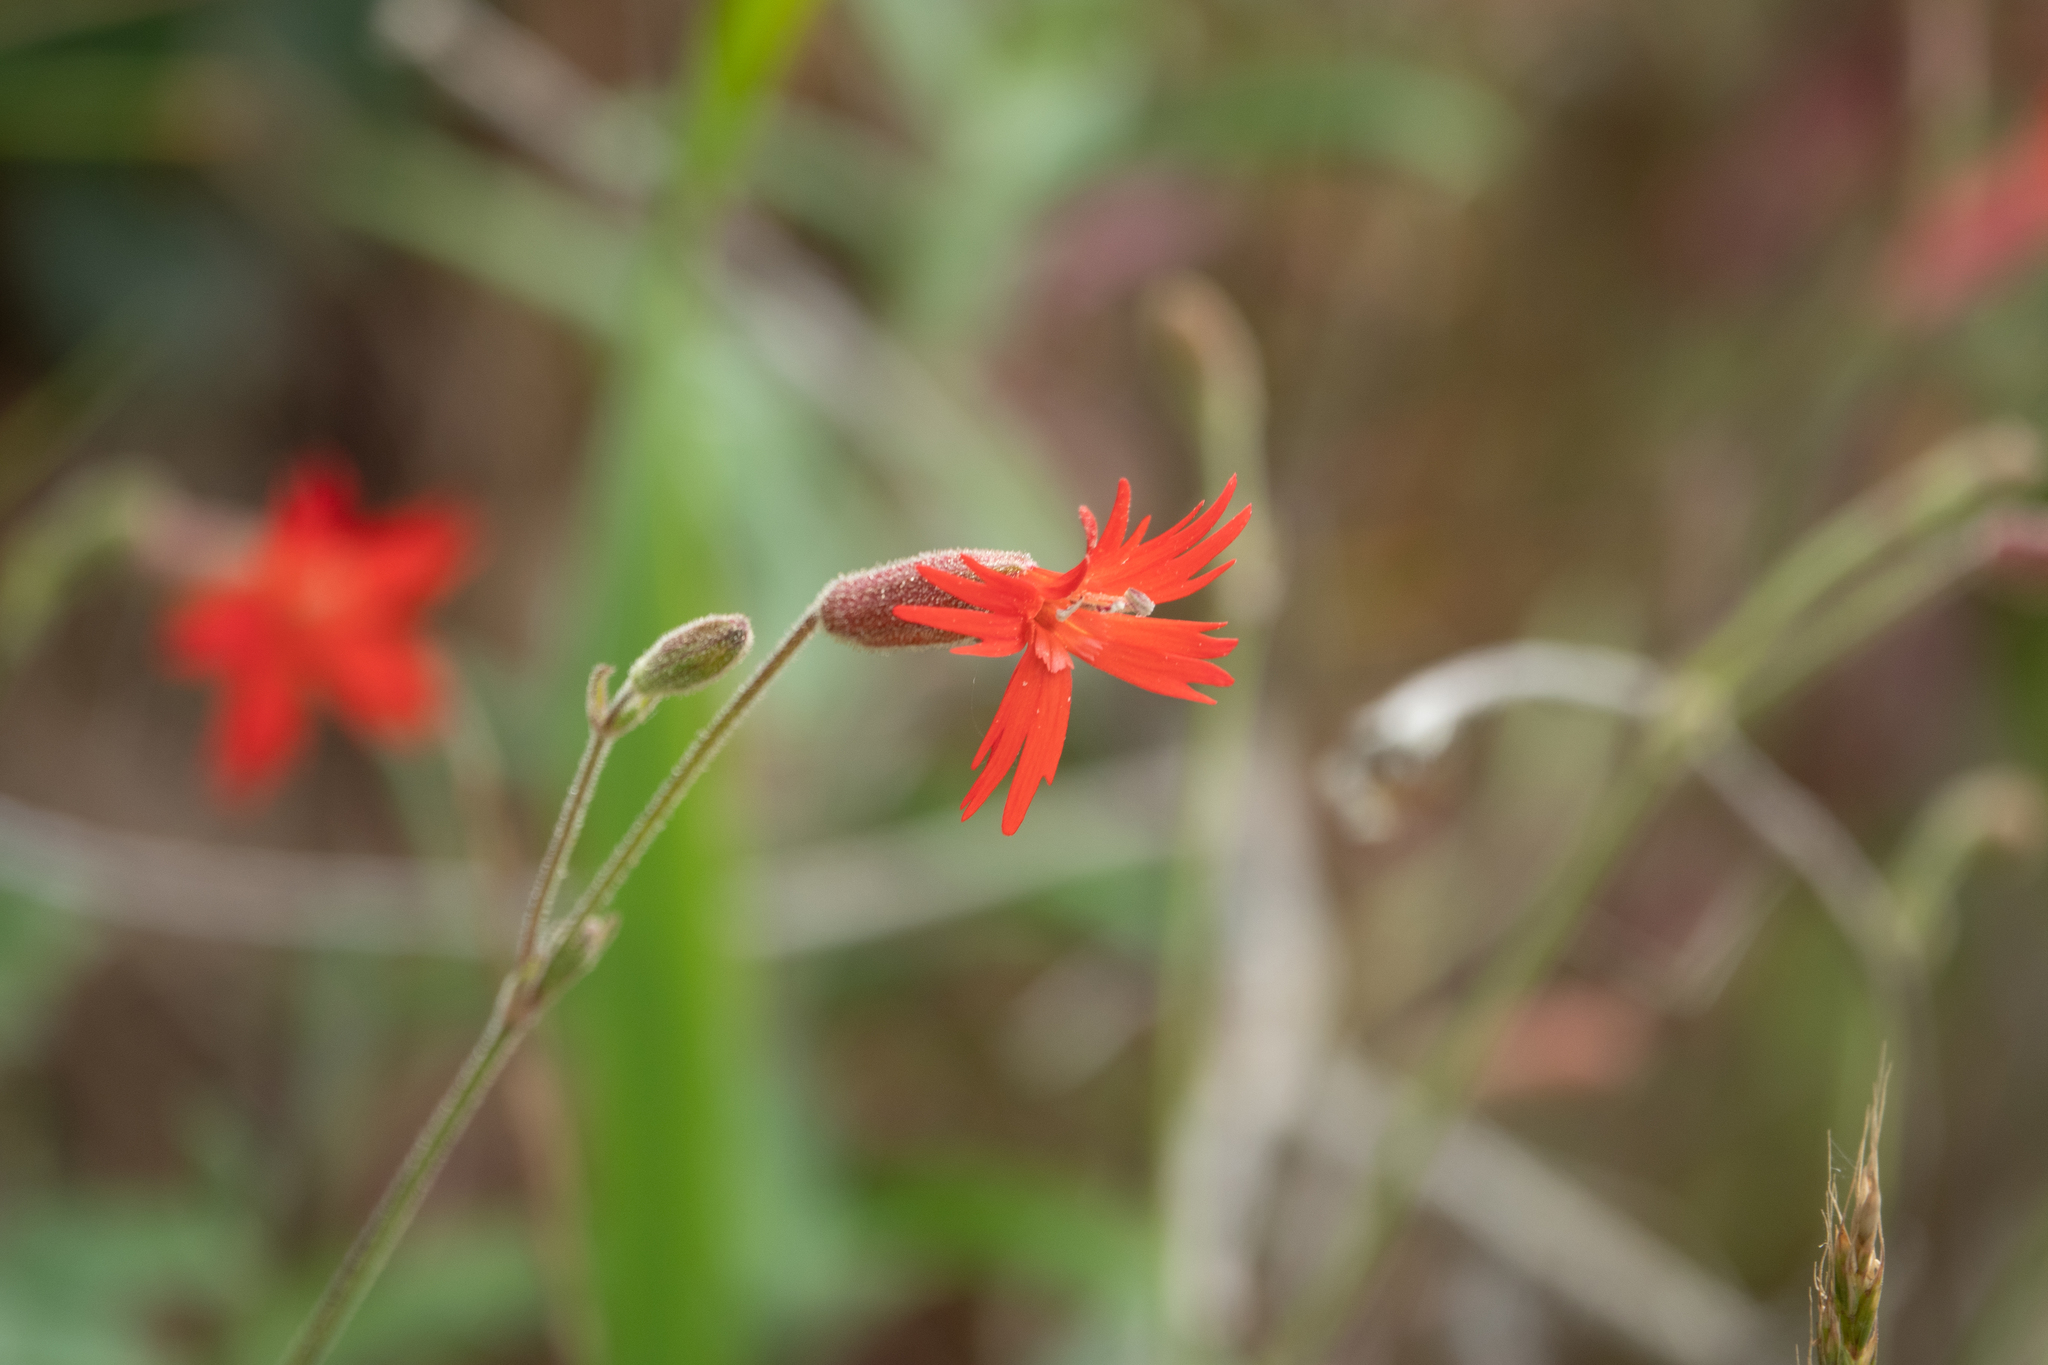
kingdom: Plantae
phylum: Tracheophyta
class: Magnoliopsida
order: Caryophyllales
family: Caryophyllaceae
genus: Silene
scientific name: Silene laciniata
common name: Indian-pink
